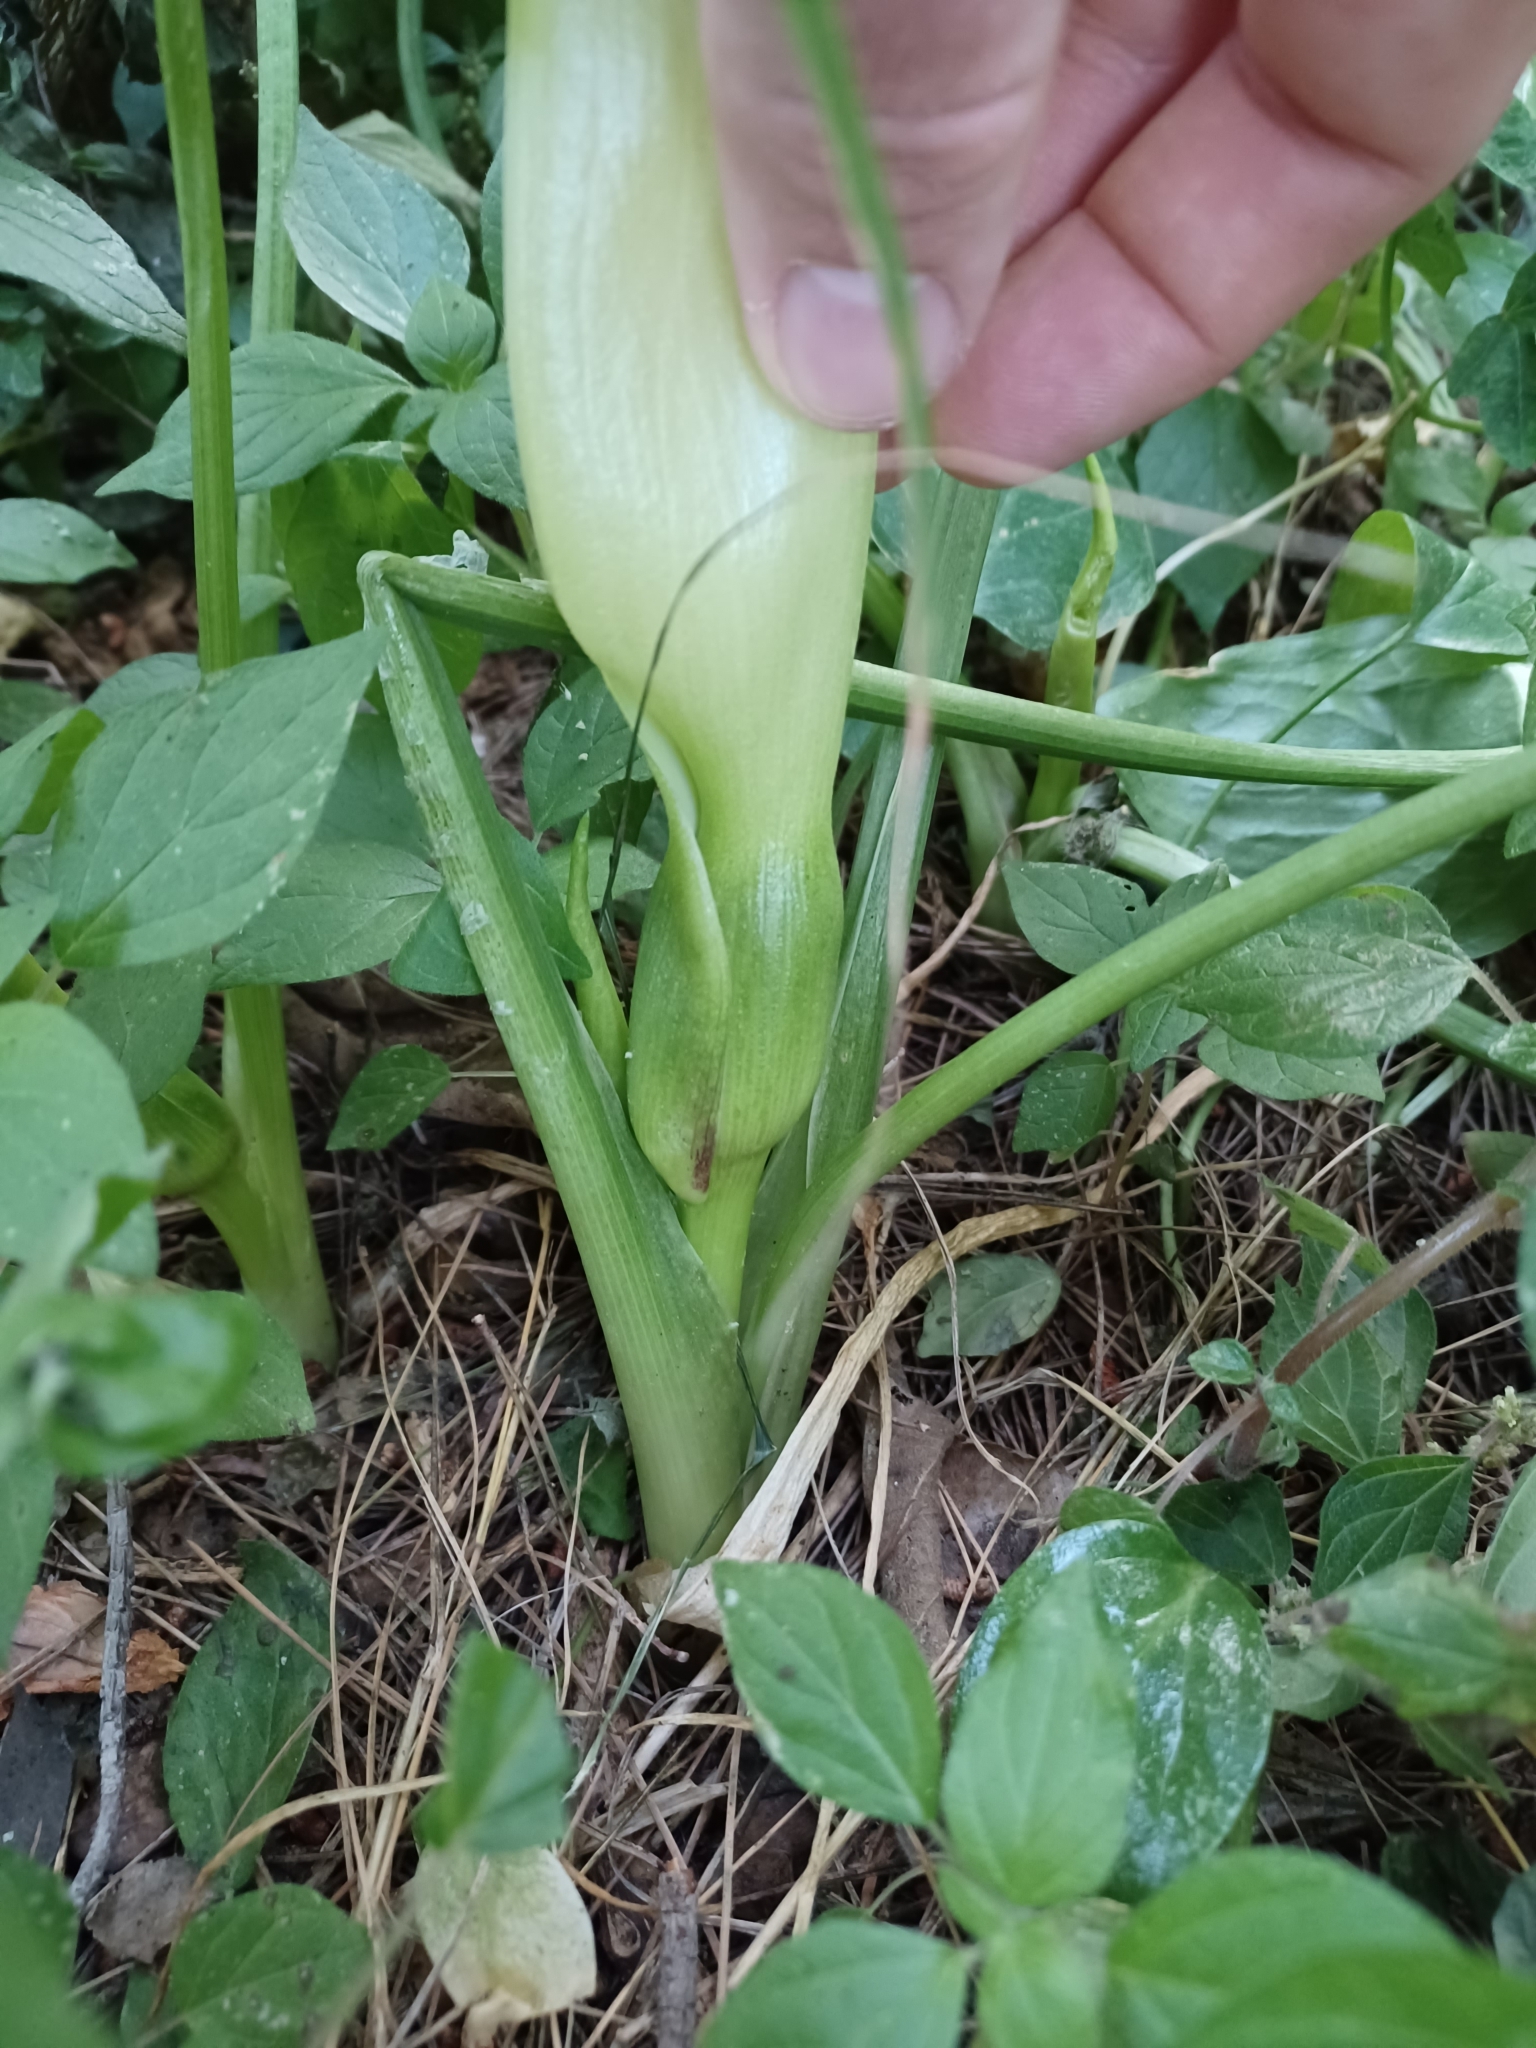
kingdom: Plantae
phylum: Tracheophyta
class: Liliopsida
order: Alismatales
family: Araceae
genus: Arum
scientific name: Arum italicum
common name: Italian lords-and-ladies
